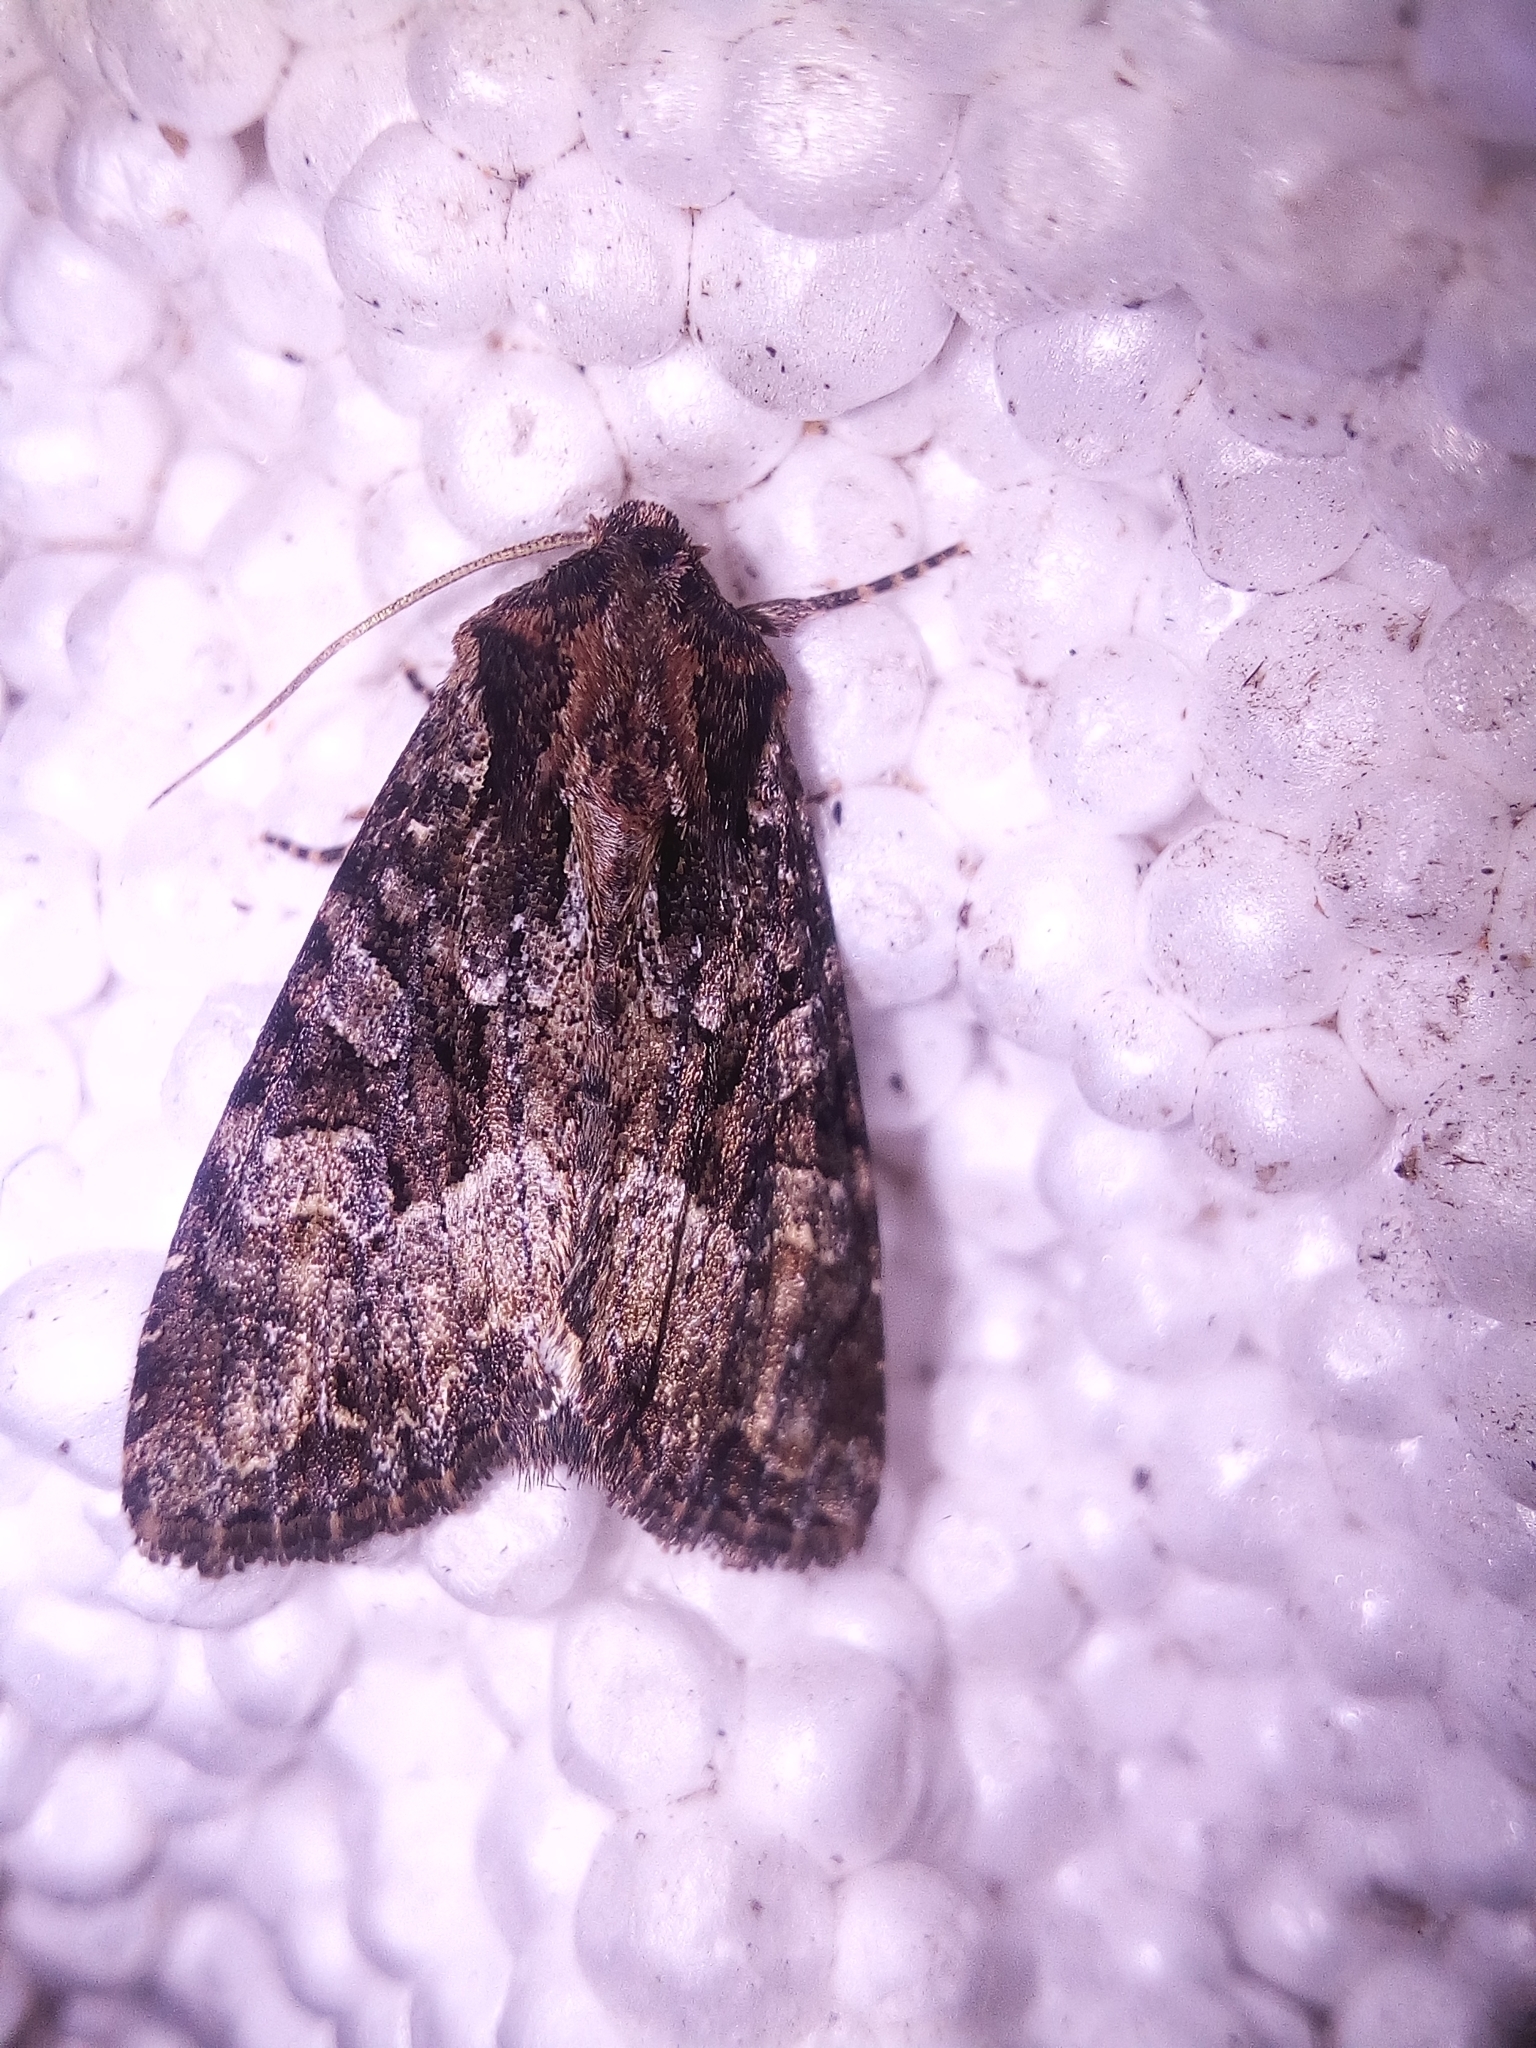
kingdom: Animalia
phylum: Arthropoda
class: Insecta
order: Lepidoptera
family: Noctuidae
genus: Apamea
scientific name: Apamea remissa
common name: Dusky brocade
